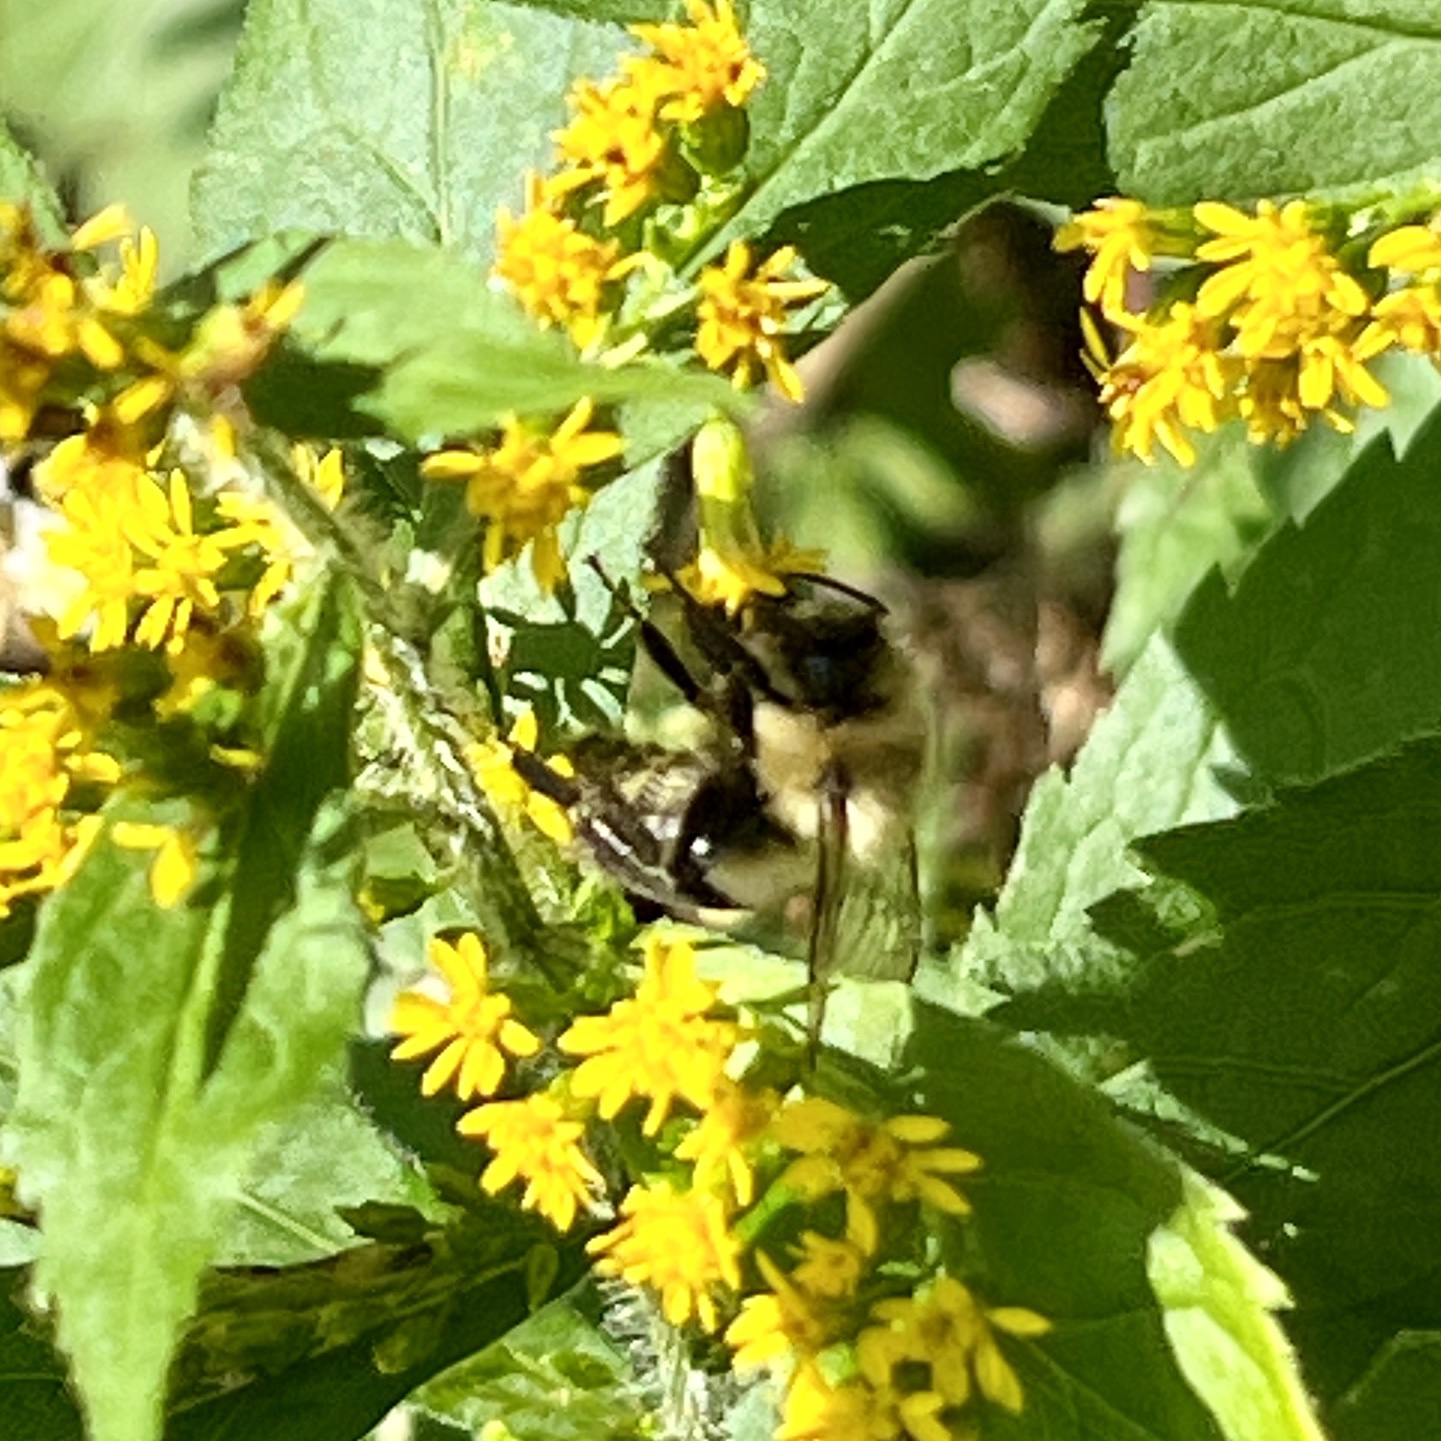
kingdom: Animalia
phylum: Arthropoda
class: Insecta
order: Hymenoptera
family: Apidae
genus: Bombus
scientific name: Bombus impatiens
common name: Common eastern bumble bee
